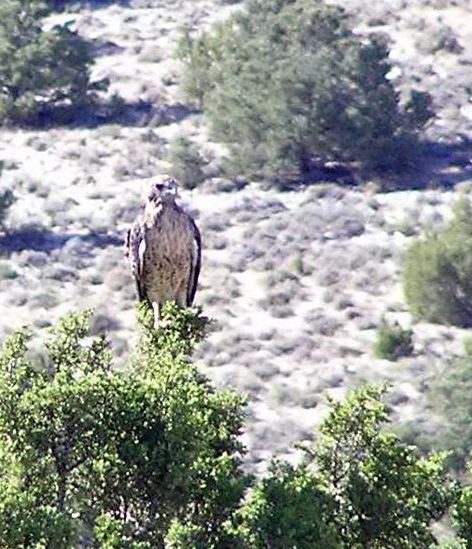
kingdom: Animalia
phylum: Chordata
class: Aves
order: Accipitriformes
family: Accipitridae
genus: Buteo
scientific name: Buteo jamaicensis
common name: Red-tailed hawk
